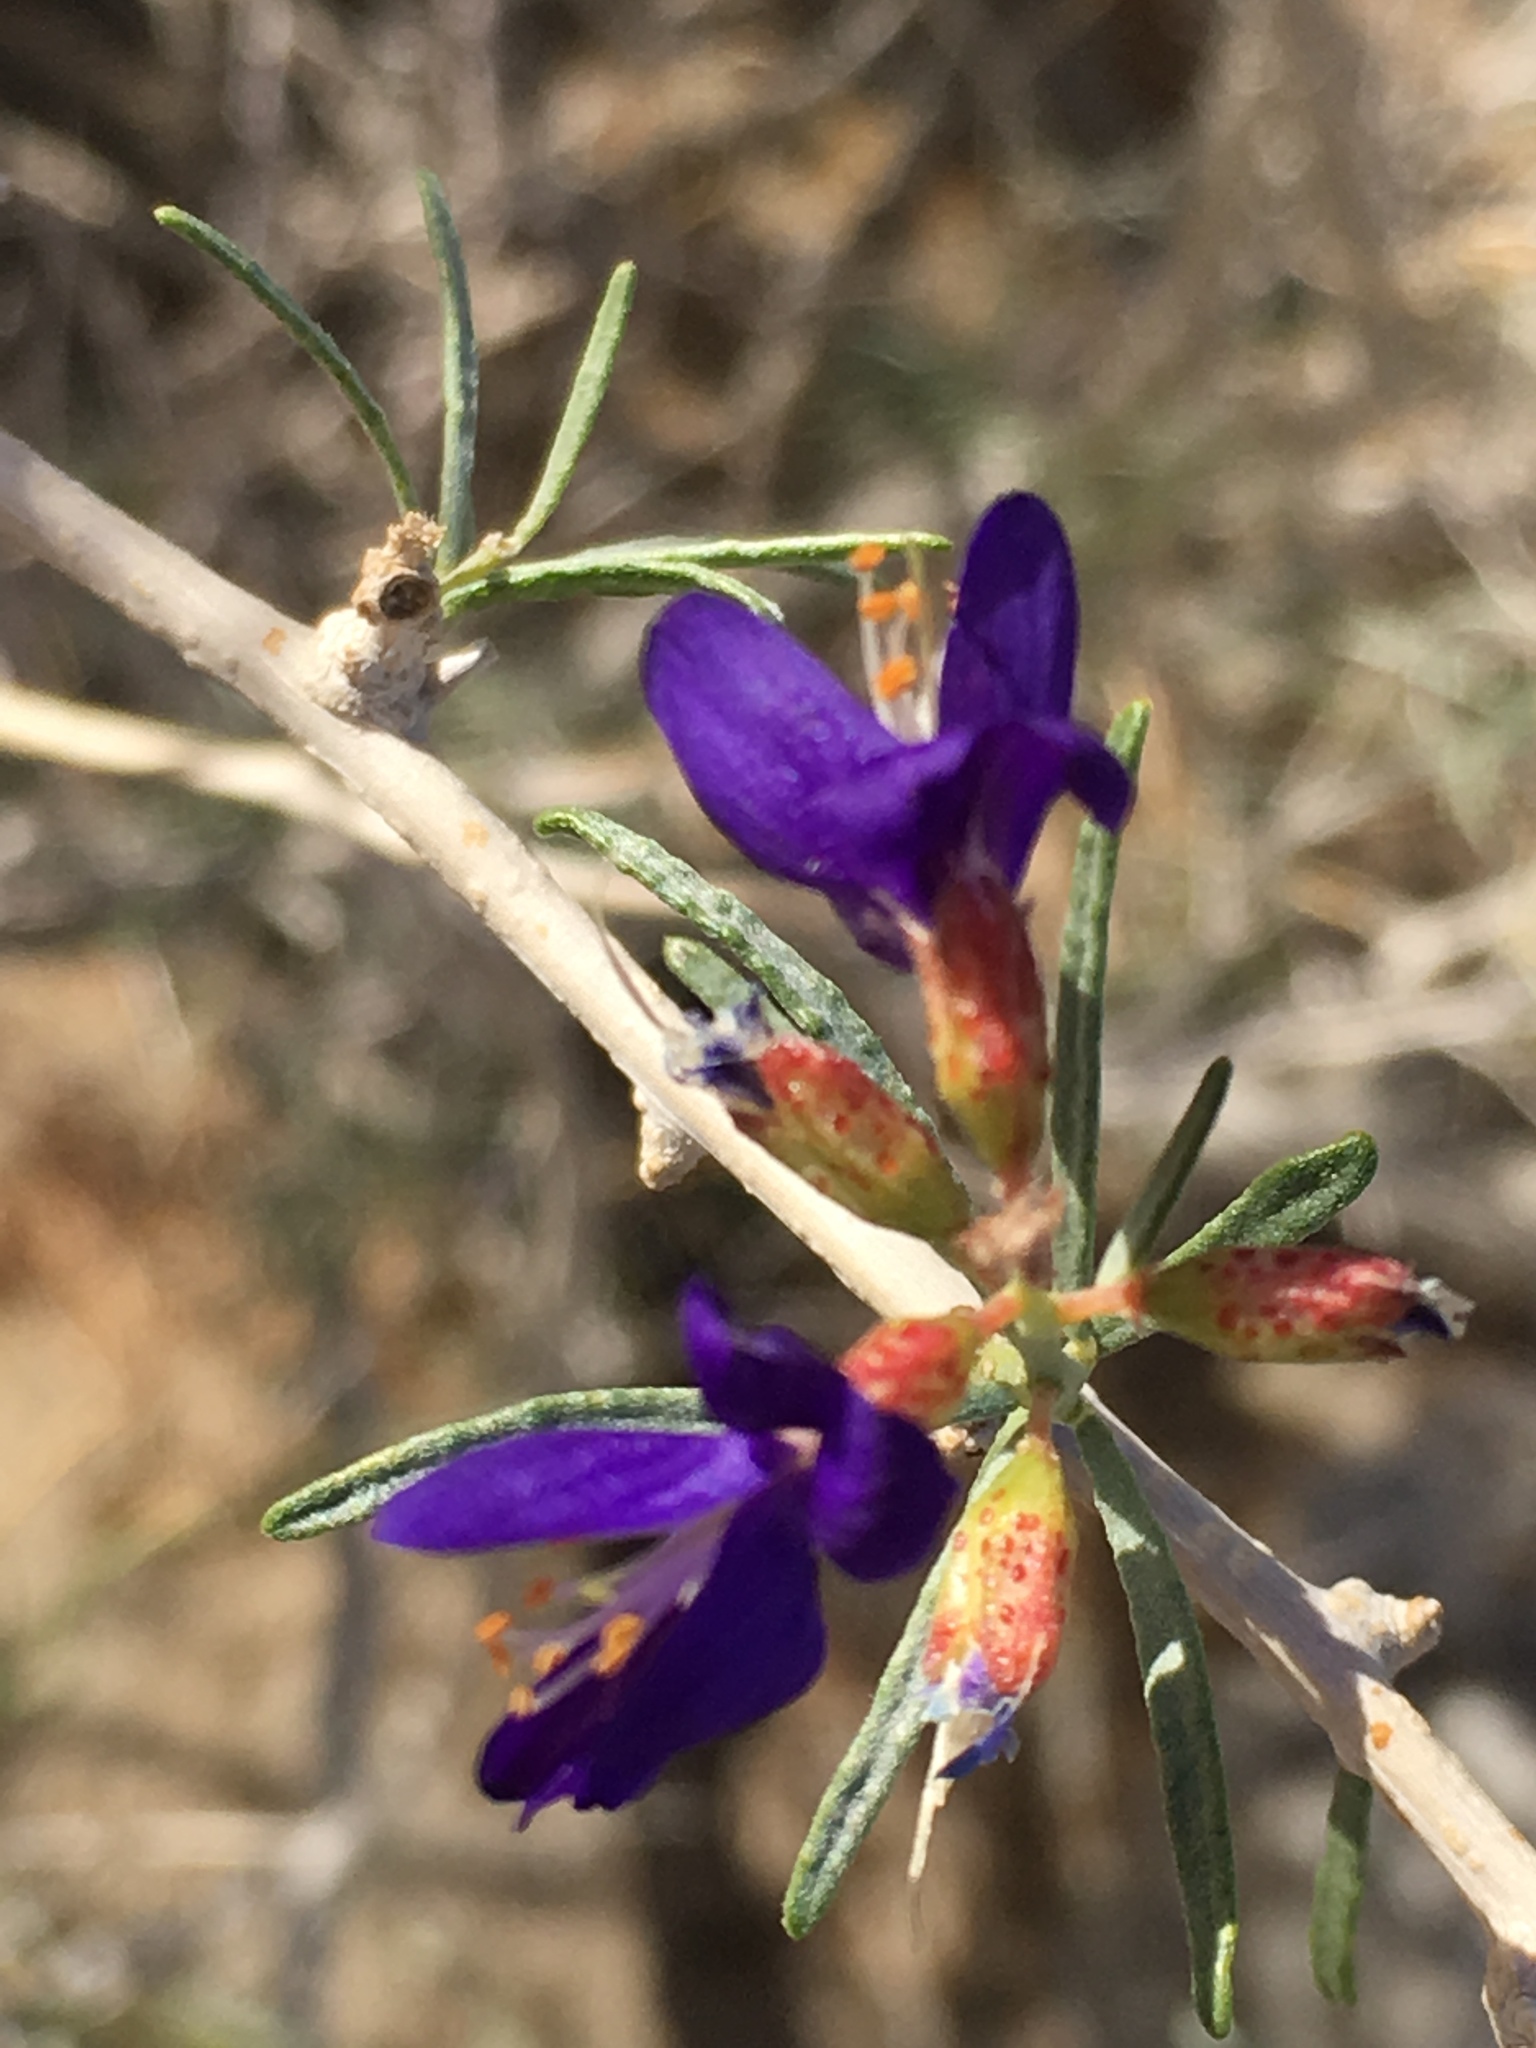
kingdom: Plantae
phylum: Tracheophyta
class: Magnoliopsida
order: Fabales
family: Fabaceae
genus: Psorothamnus
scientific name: Psorothamnus schottii
